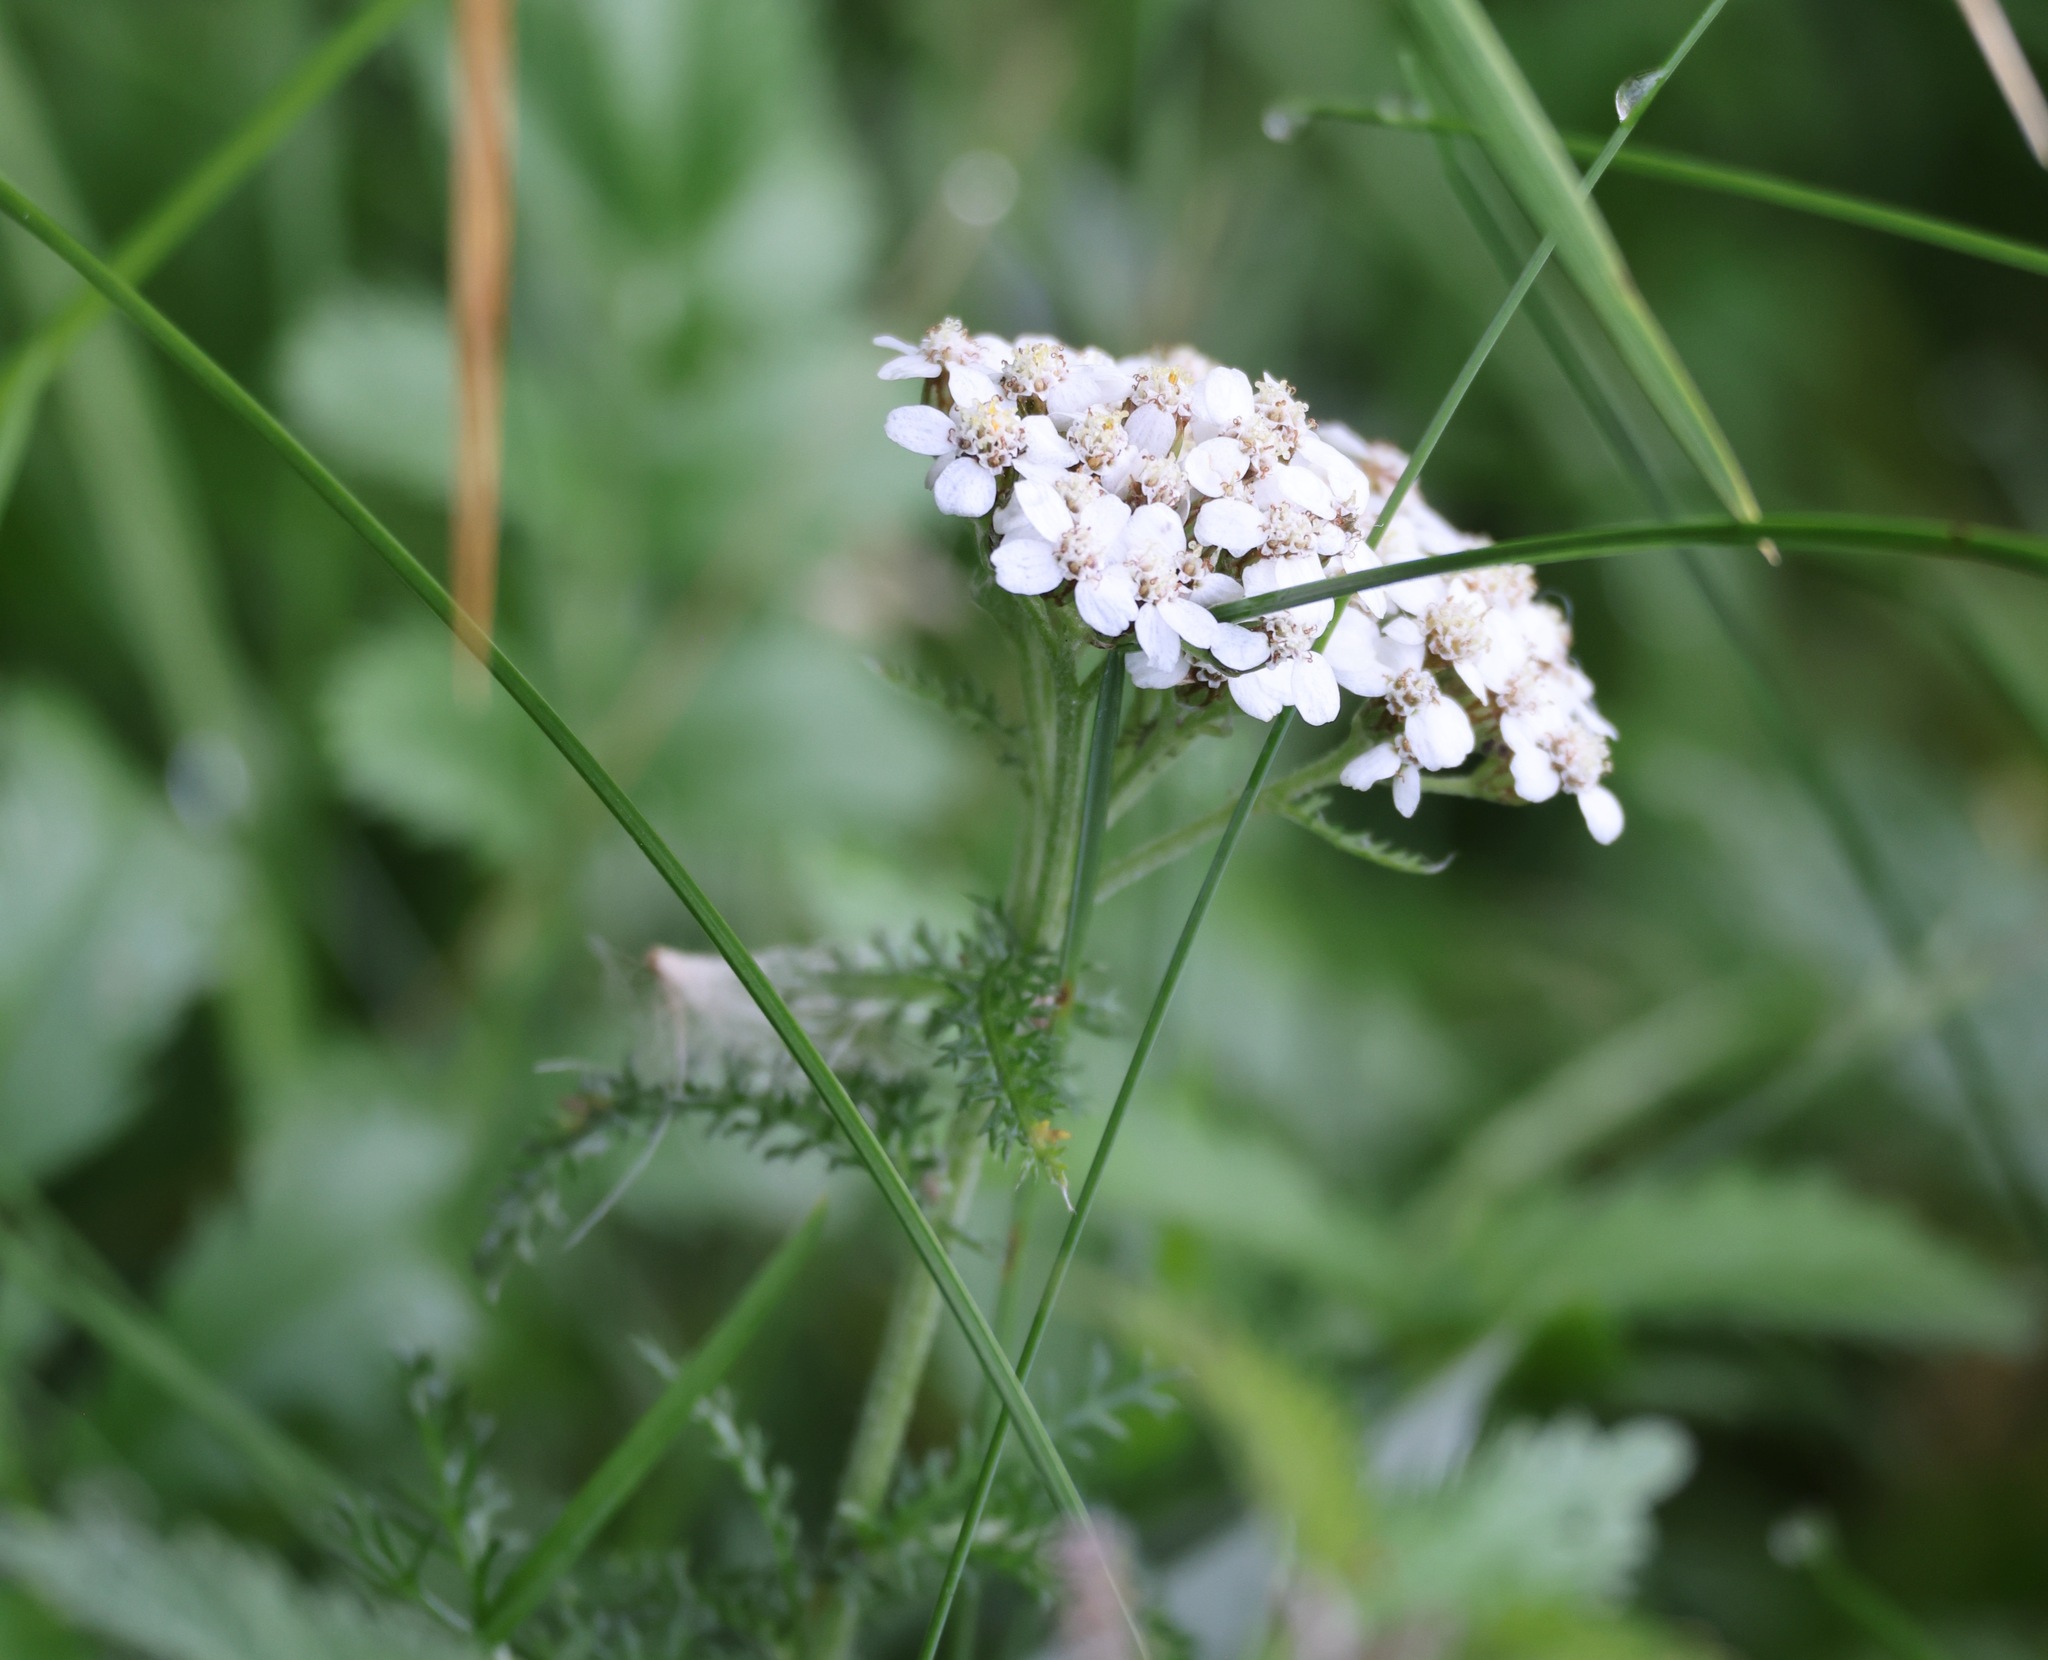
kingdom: Plantae
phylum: Tracheophyta
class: Magnoliopsida
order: Asterales
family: Asteraceae
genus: Achillea
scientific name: Achillea millefolium
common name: Yarrow
